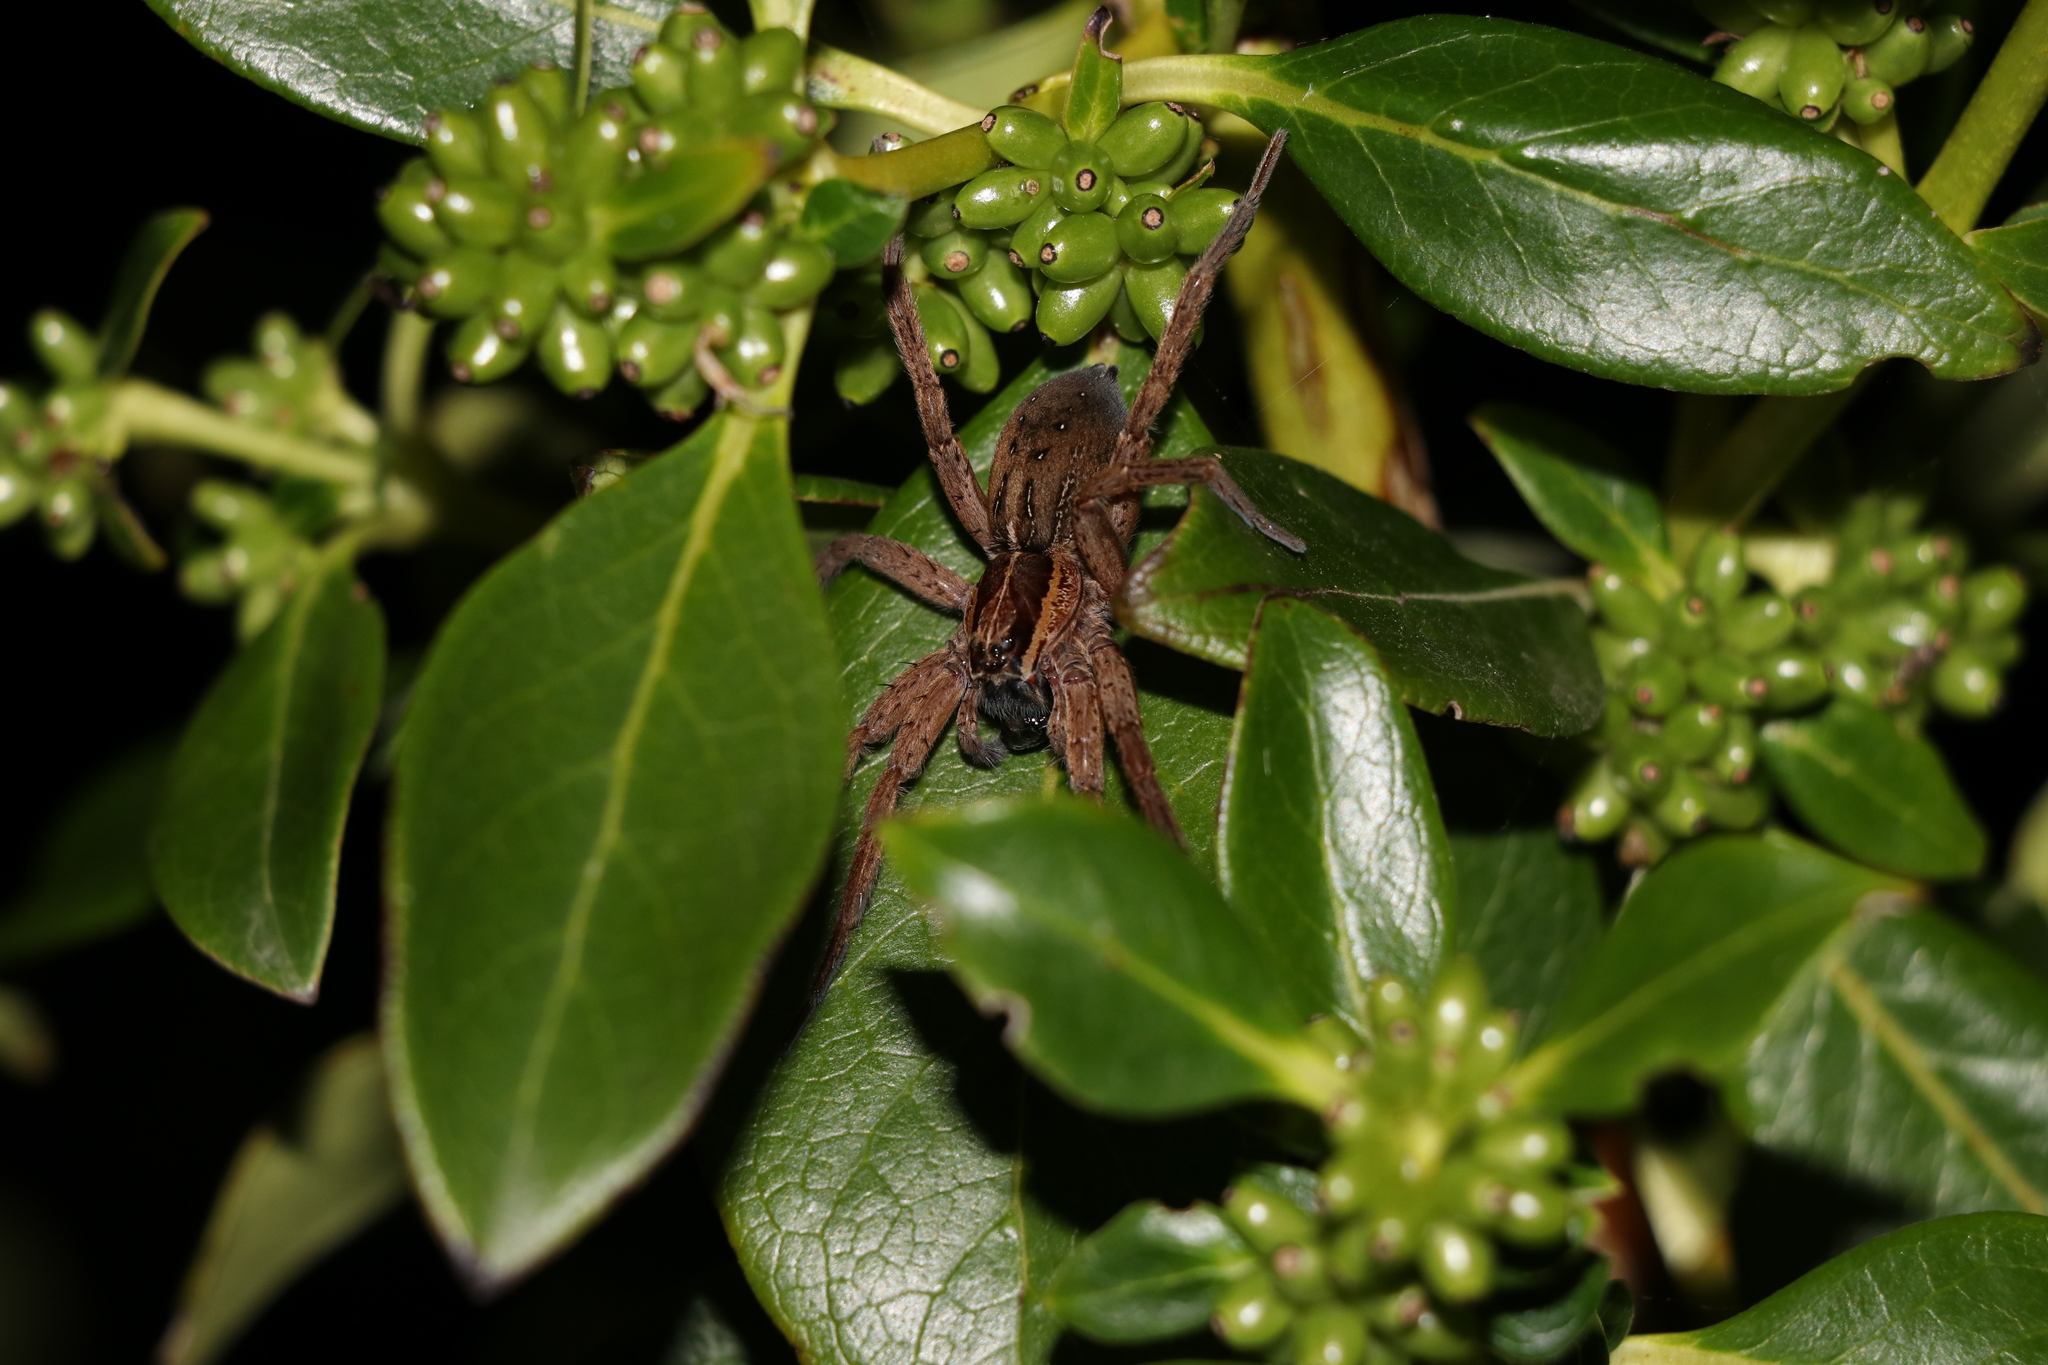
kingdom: Animalia
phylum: Arthropoda
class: Arachnida
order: Araneae
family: Pisauridae
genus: Dolomedes
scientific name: Dolomedes minor
